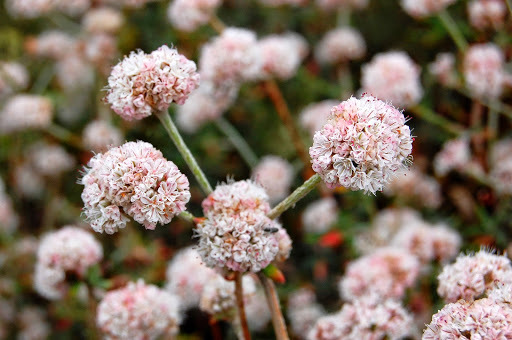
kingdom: Plantae
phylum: Tracheophyta
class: Magnoliopsida
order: Caryophyllales
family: Polygonaceae
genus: Eriogonum
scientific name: Eriogonum parvifolium
